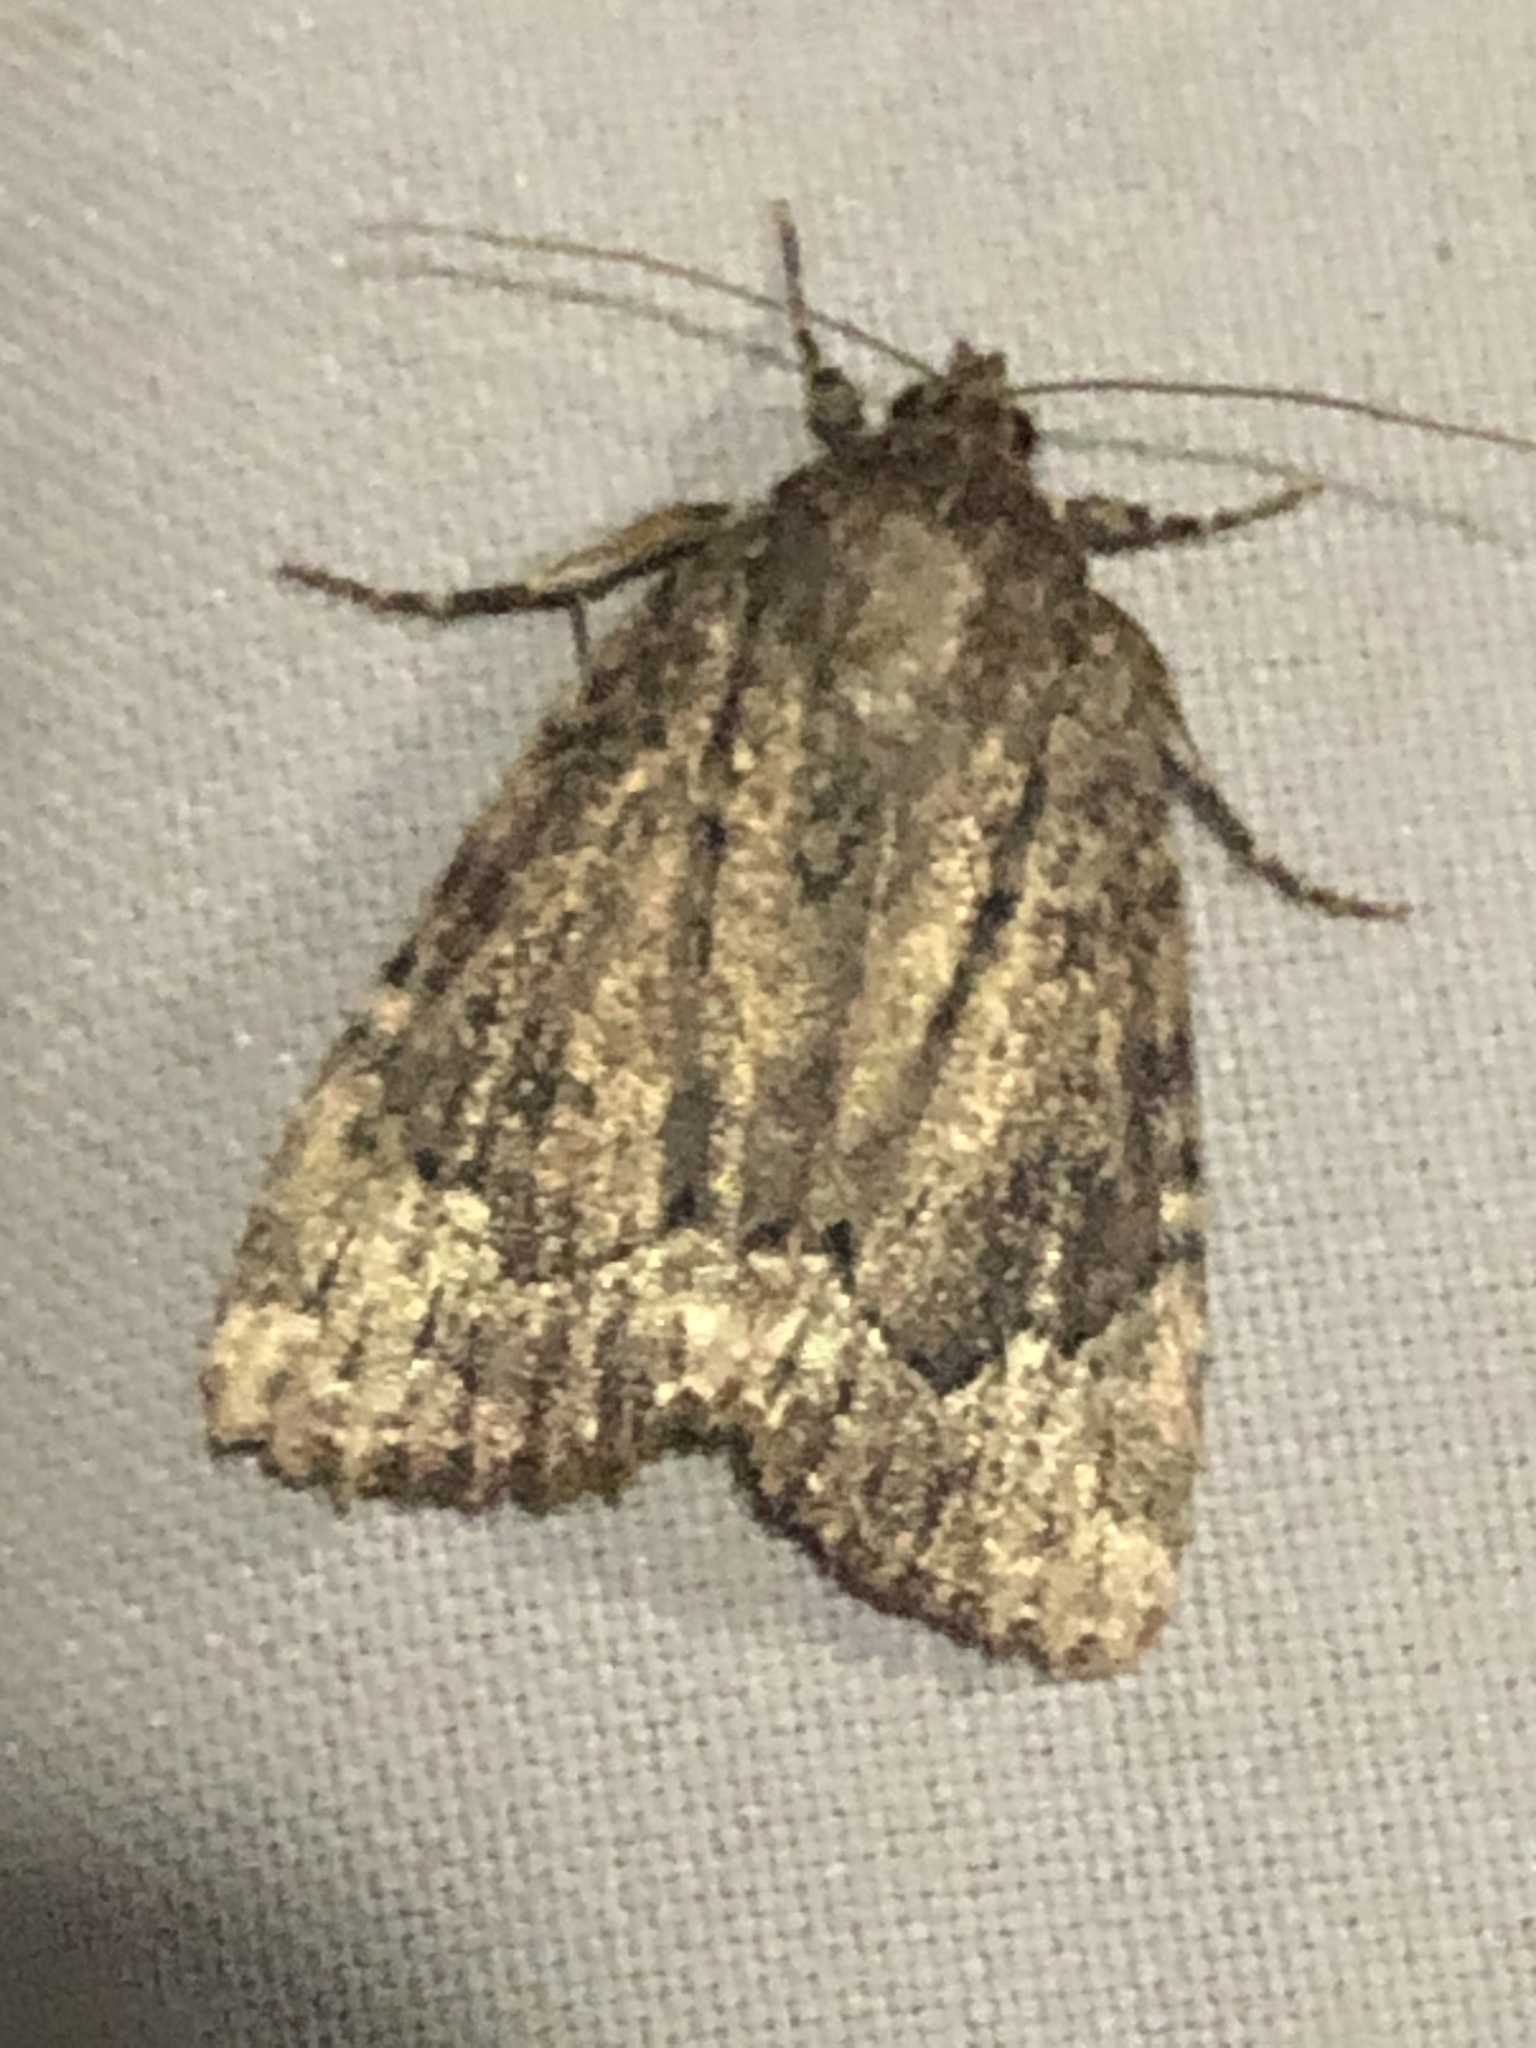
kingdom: Animalia
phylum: Arthropoda
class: Insecta
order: Lepidoptera
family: Noctuidae
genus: Amphipyra
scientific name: Amphipyra pyramidoides
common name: American copper underwing
